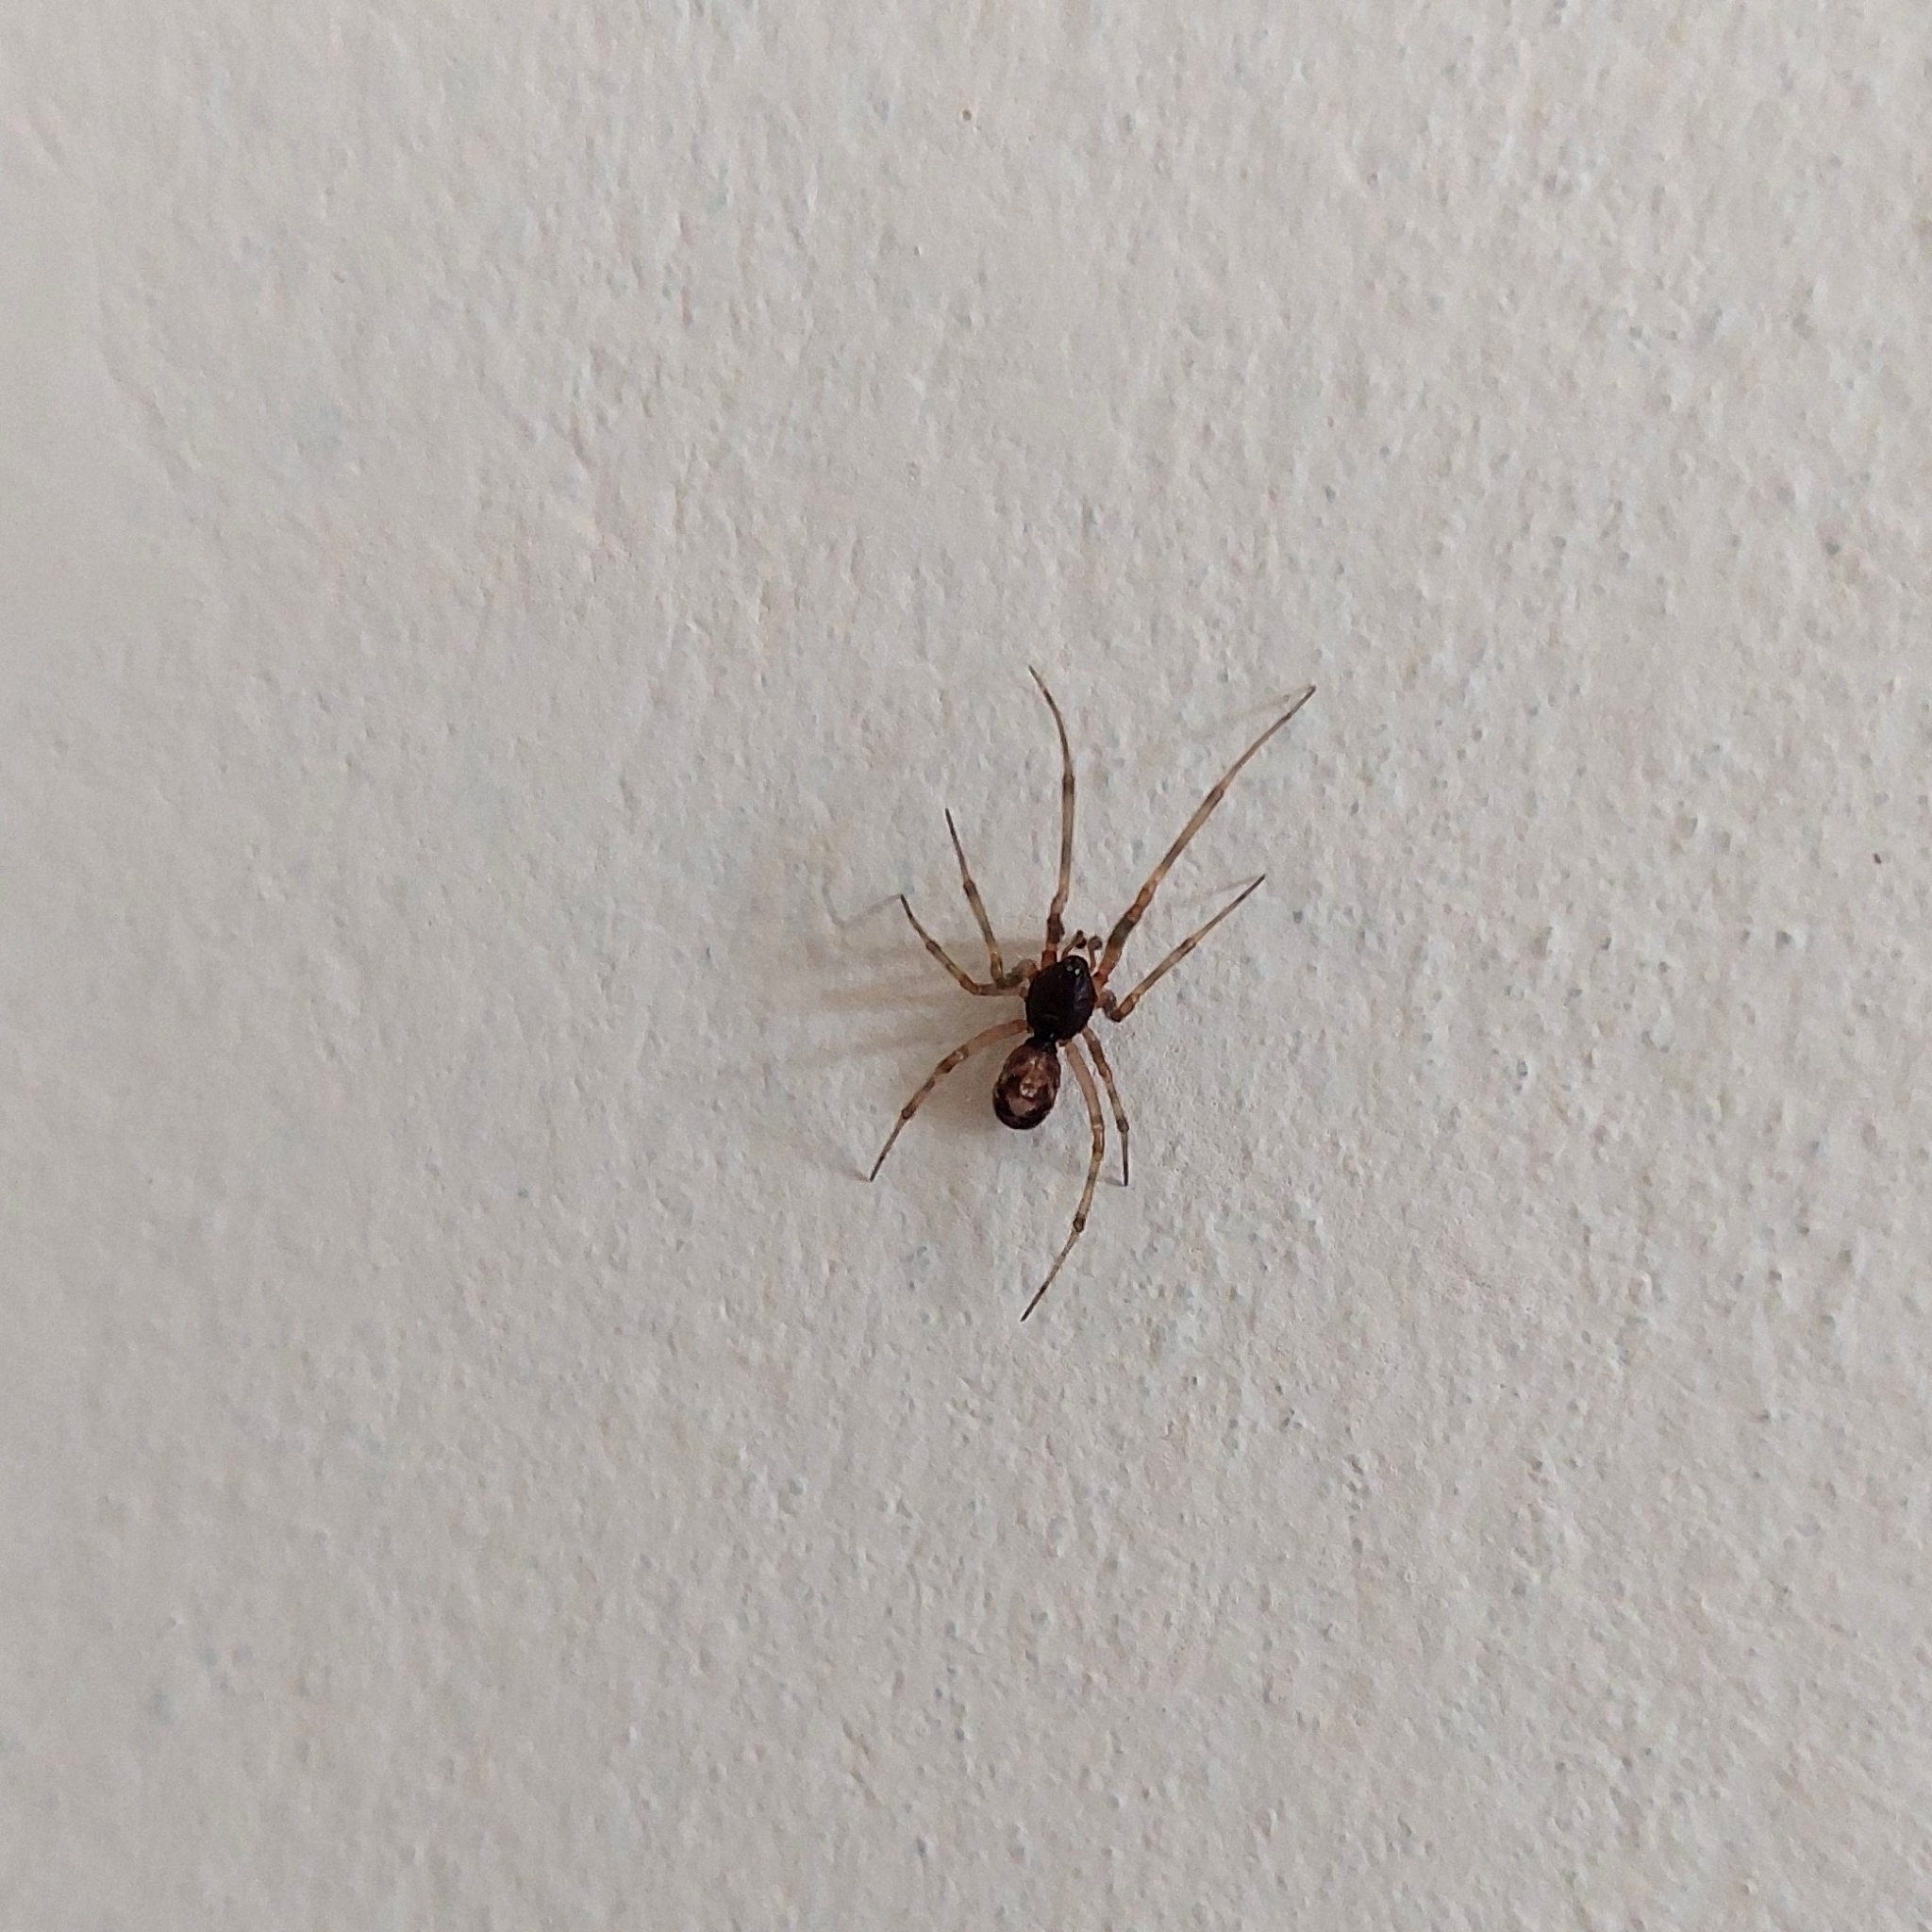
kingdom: Animalia
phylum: Arthropoda
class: Arachnida
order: Araneae
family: Theridiidae
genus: Steatoda
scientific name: Steatoda triangulosa
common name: Triangulate bud spider
